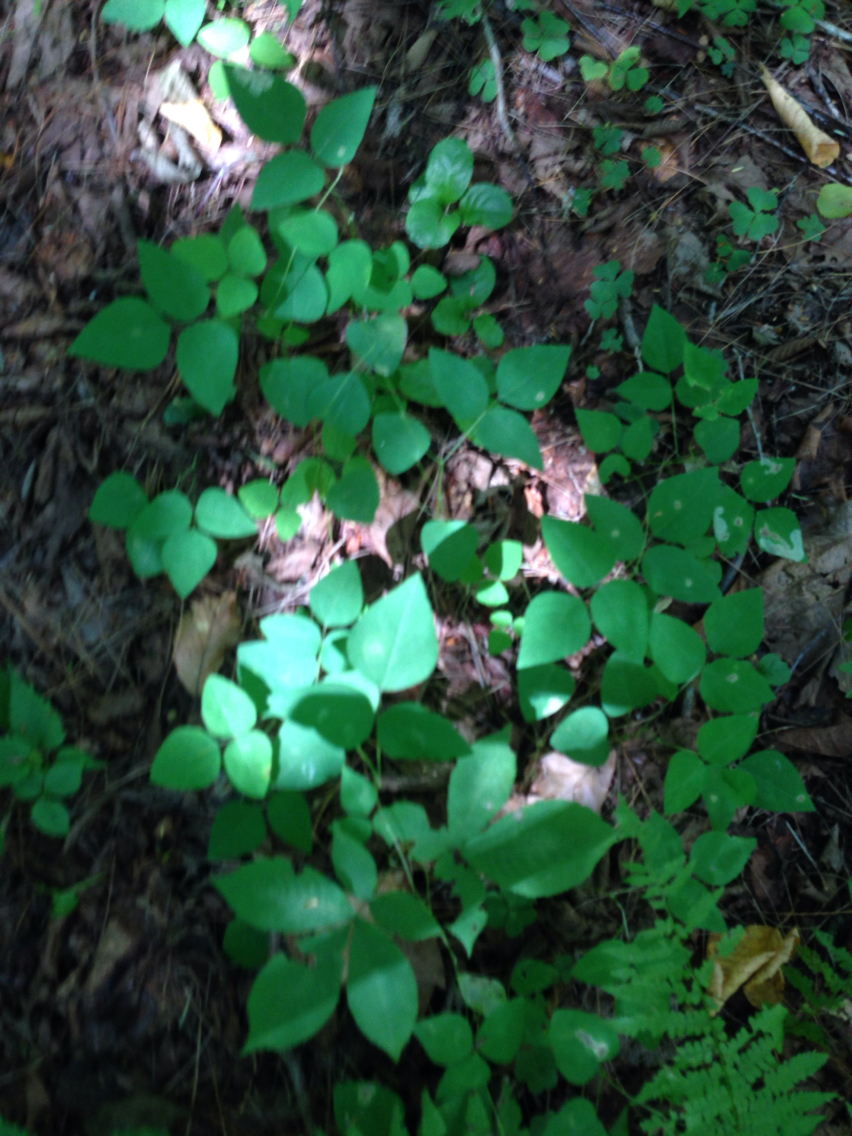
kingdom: Plantae
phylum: Tracheophyta
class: Magnoliopsida
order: Fabales
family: Fabaceae
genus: Amphicarpaea
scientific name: Amphicarpaea bracteata
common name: American hog peanut
